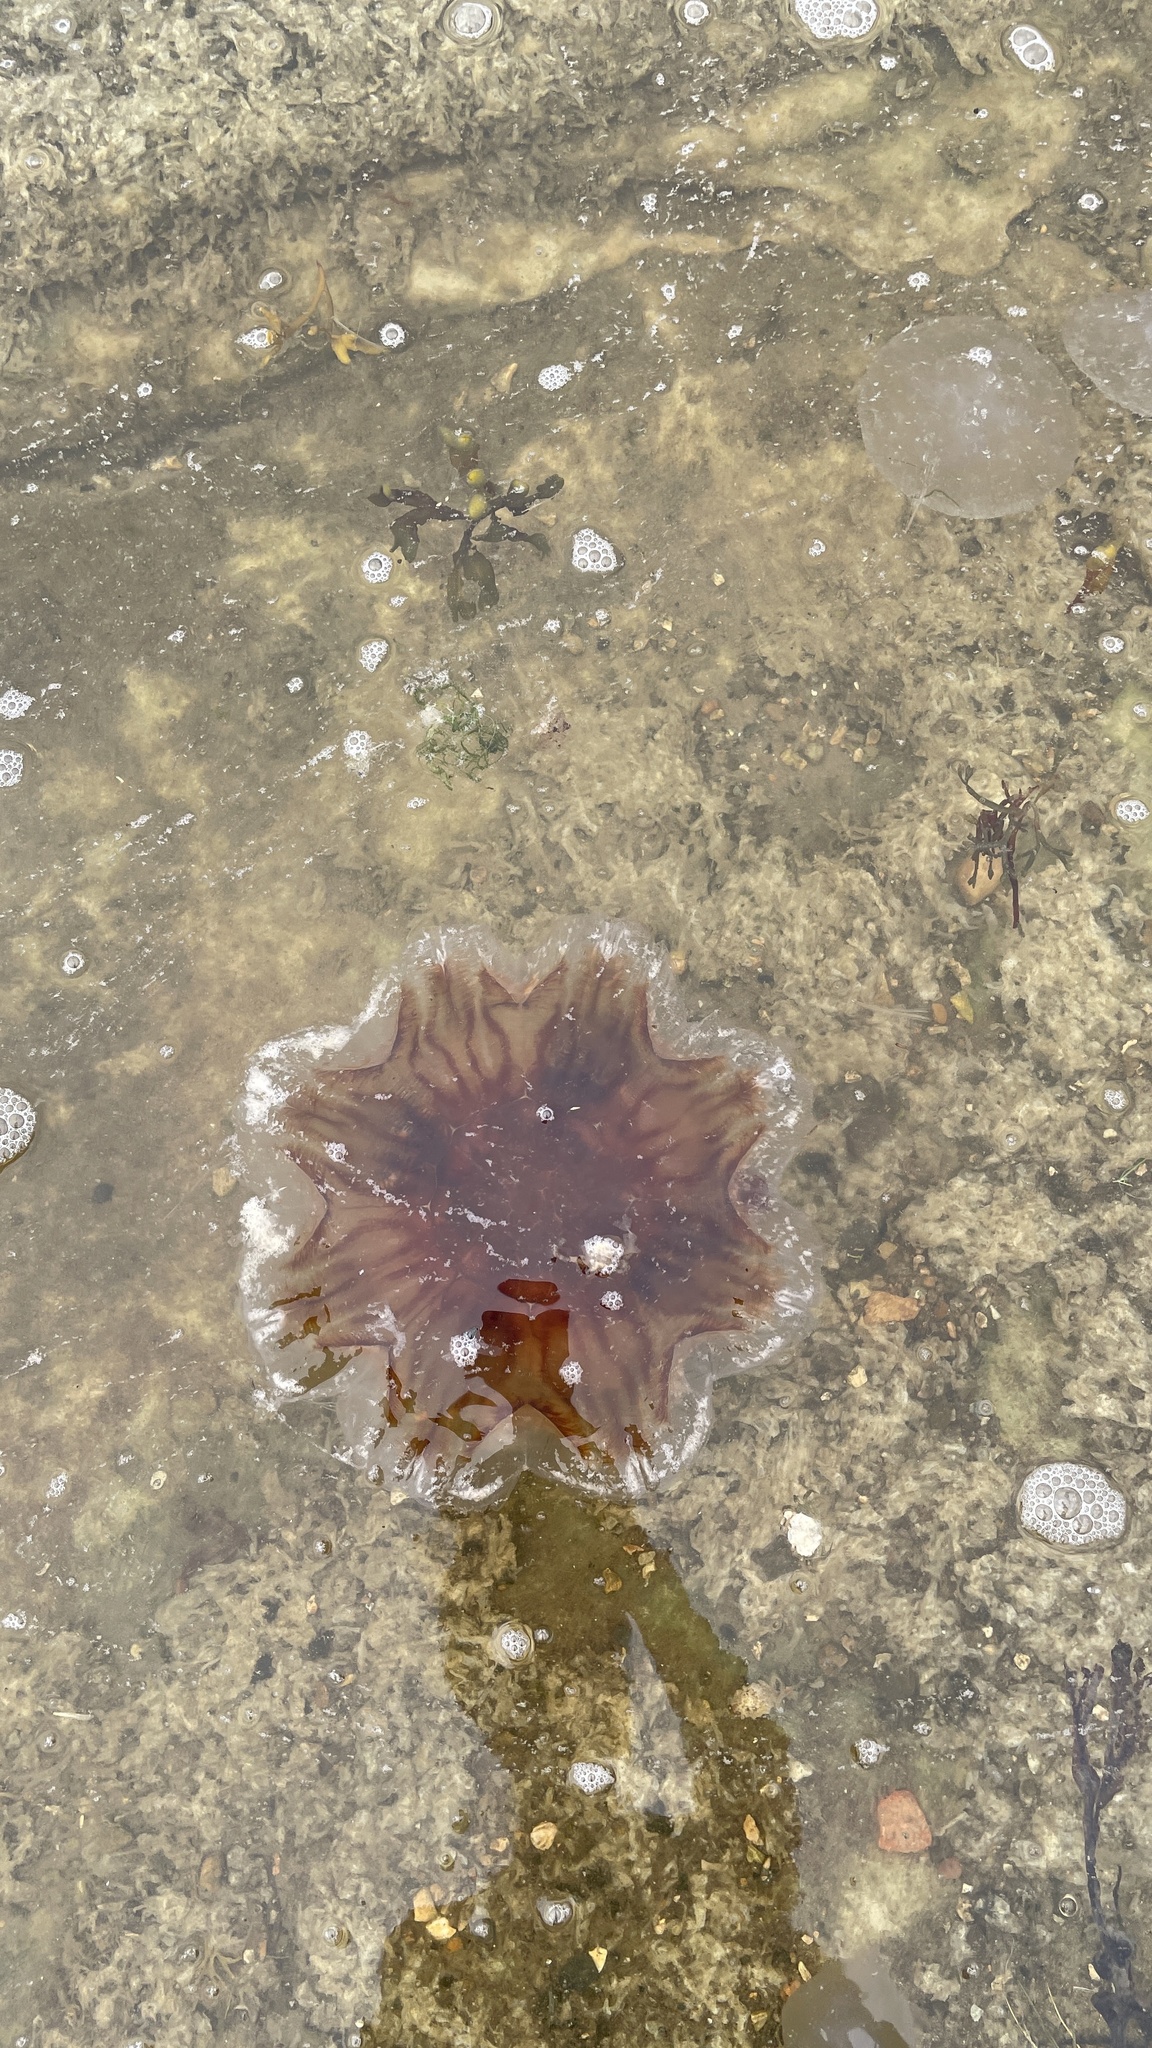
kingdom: Animalia
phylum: Cnidaria
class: Scyphozoa
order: Semaeostomeae
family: Cyaneidae
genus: Cyanea
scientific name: Cyanea capillata
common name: Lion's mane jellyfish
